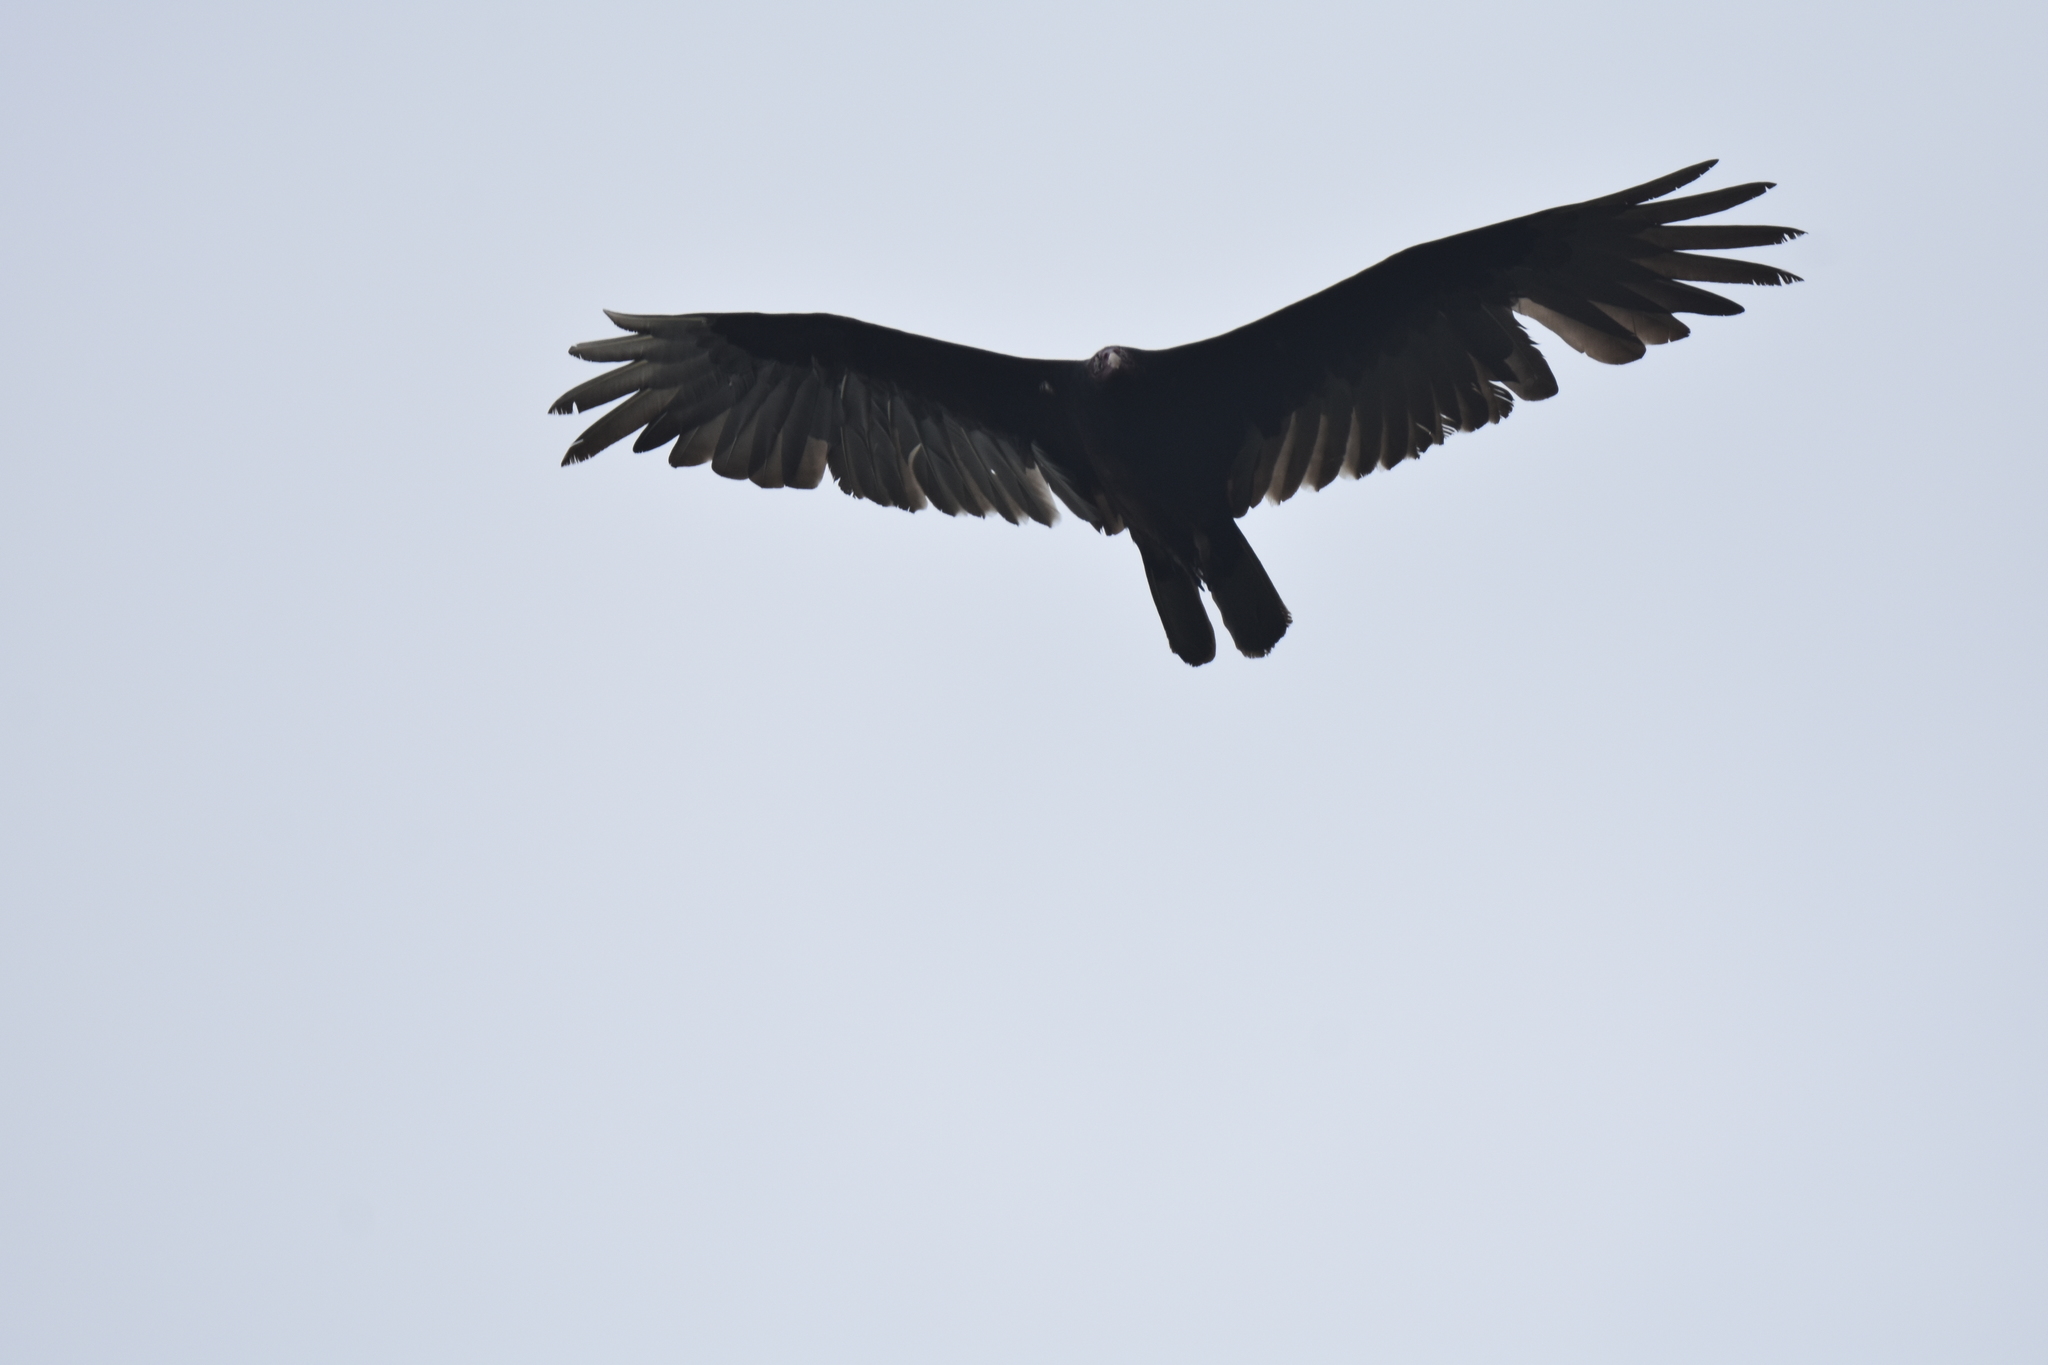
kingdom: Animalia
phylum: Chordata
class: Aves
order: Accipitriformes
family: Cathartidae
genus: Cathartes
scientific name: Cathartes aura
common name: Turkey vulture
